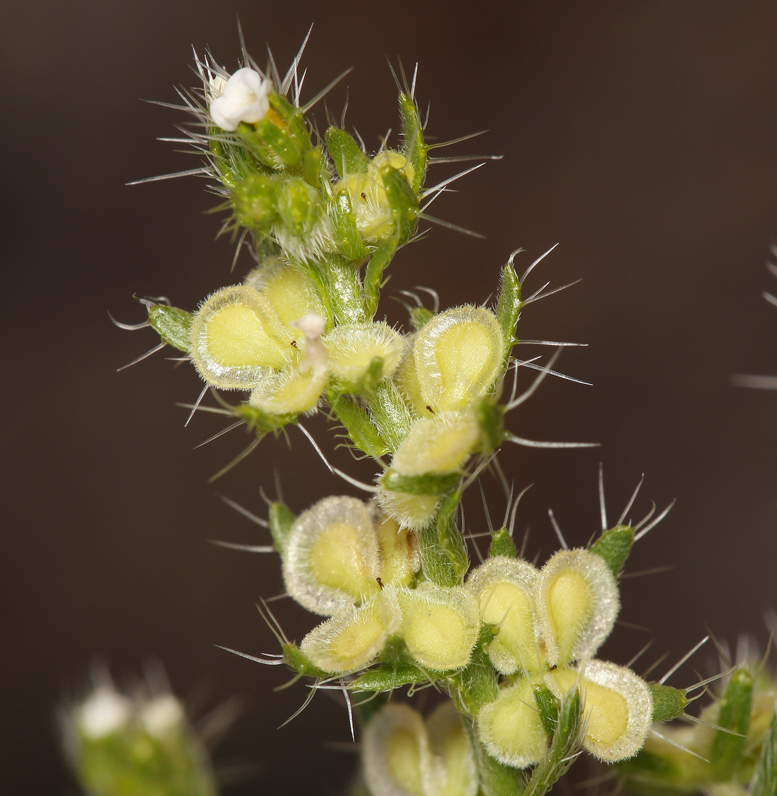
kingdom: Plantae
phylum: Tracheophyta
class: Magnoliopsida
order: Boraginales
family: Boraginaceae
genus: Pectocarya
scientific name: Pectocarya setosa
